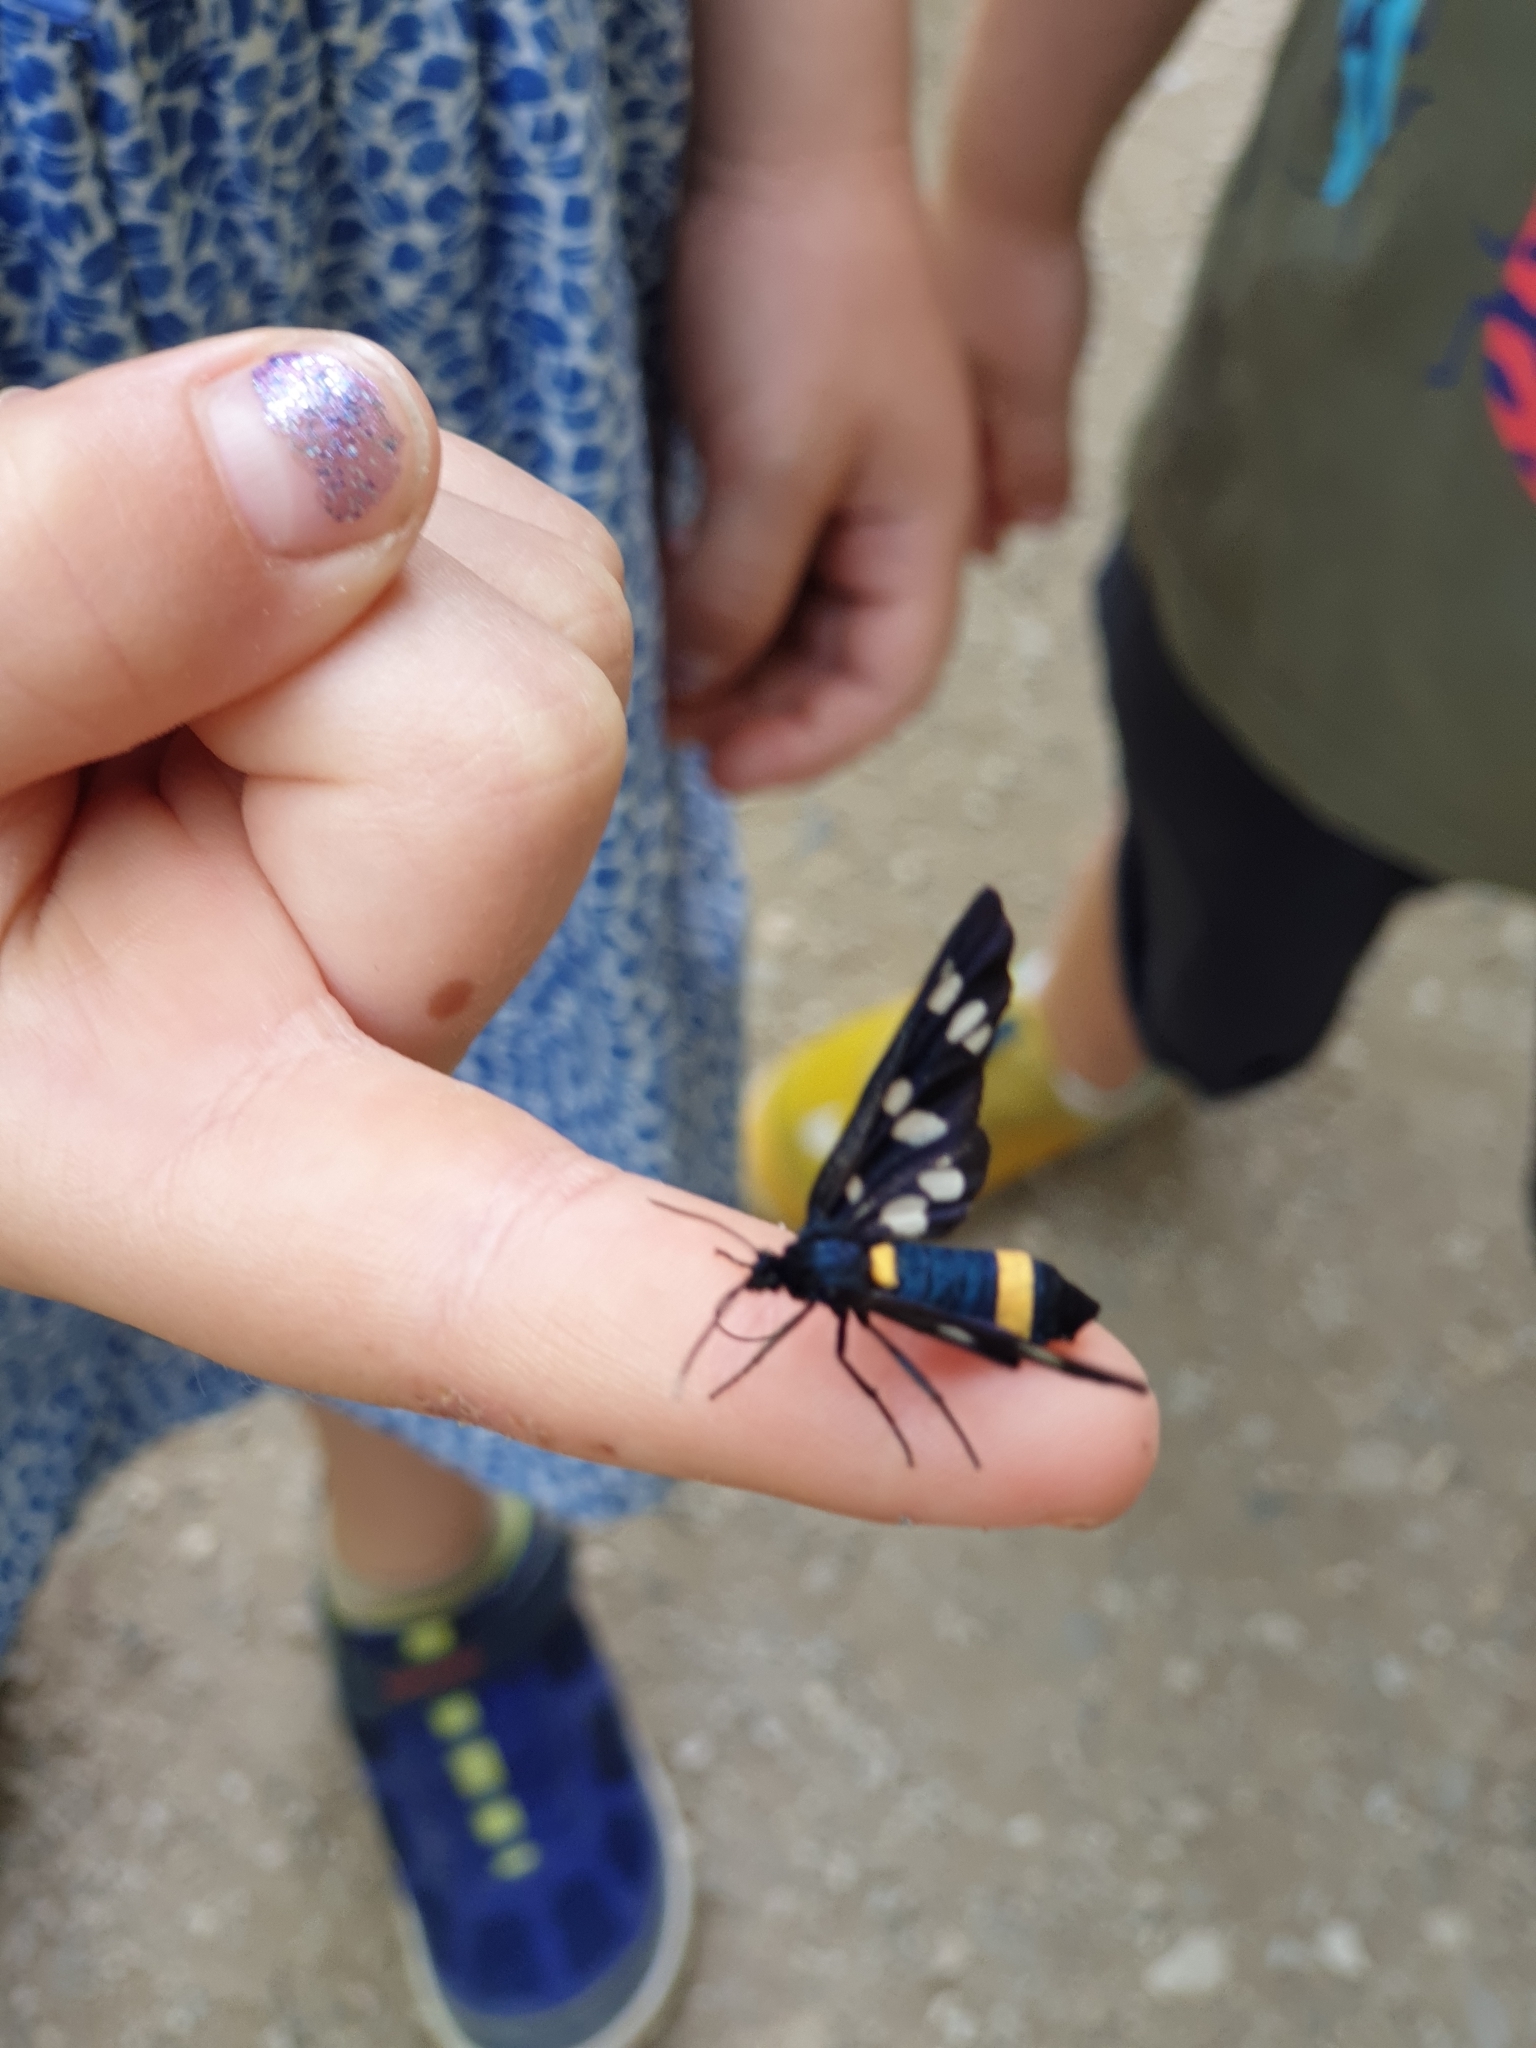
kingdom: Animalia
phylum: Arthropoda
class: Insecta
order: Lepidoptera
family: Erebidae
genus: Amata
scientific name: Amata phegea
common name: Nine-spotted
